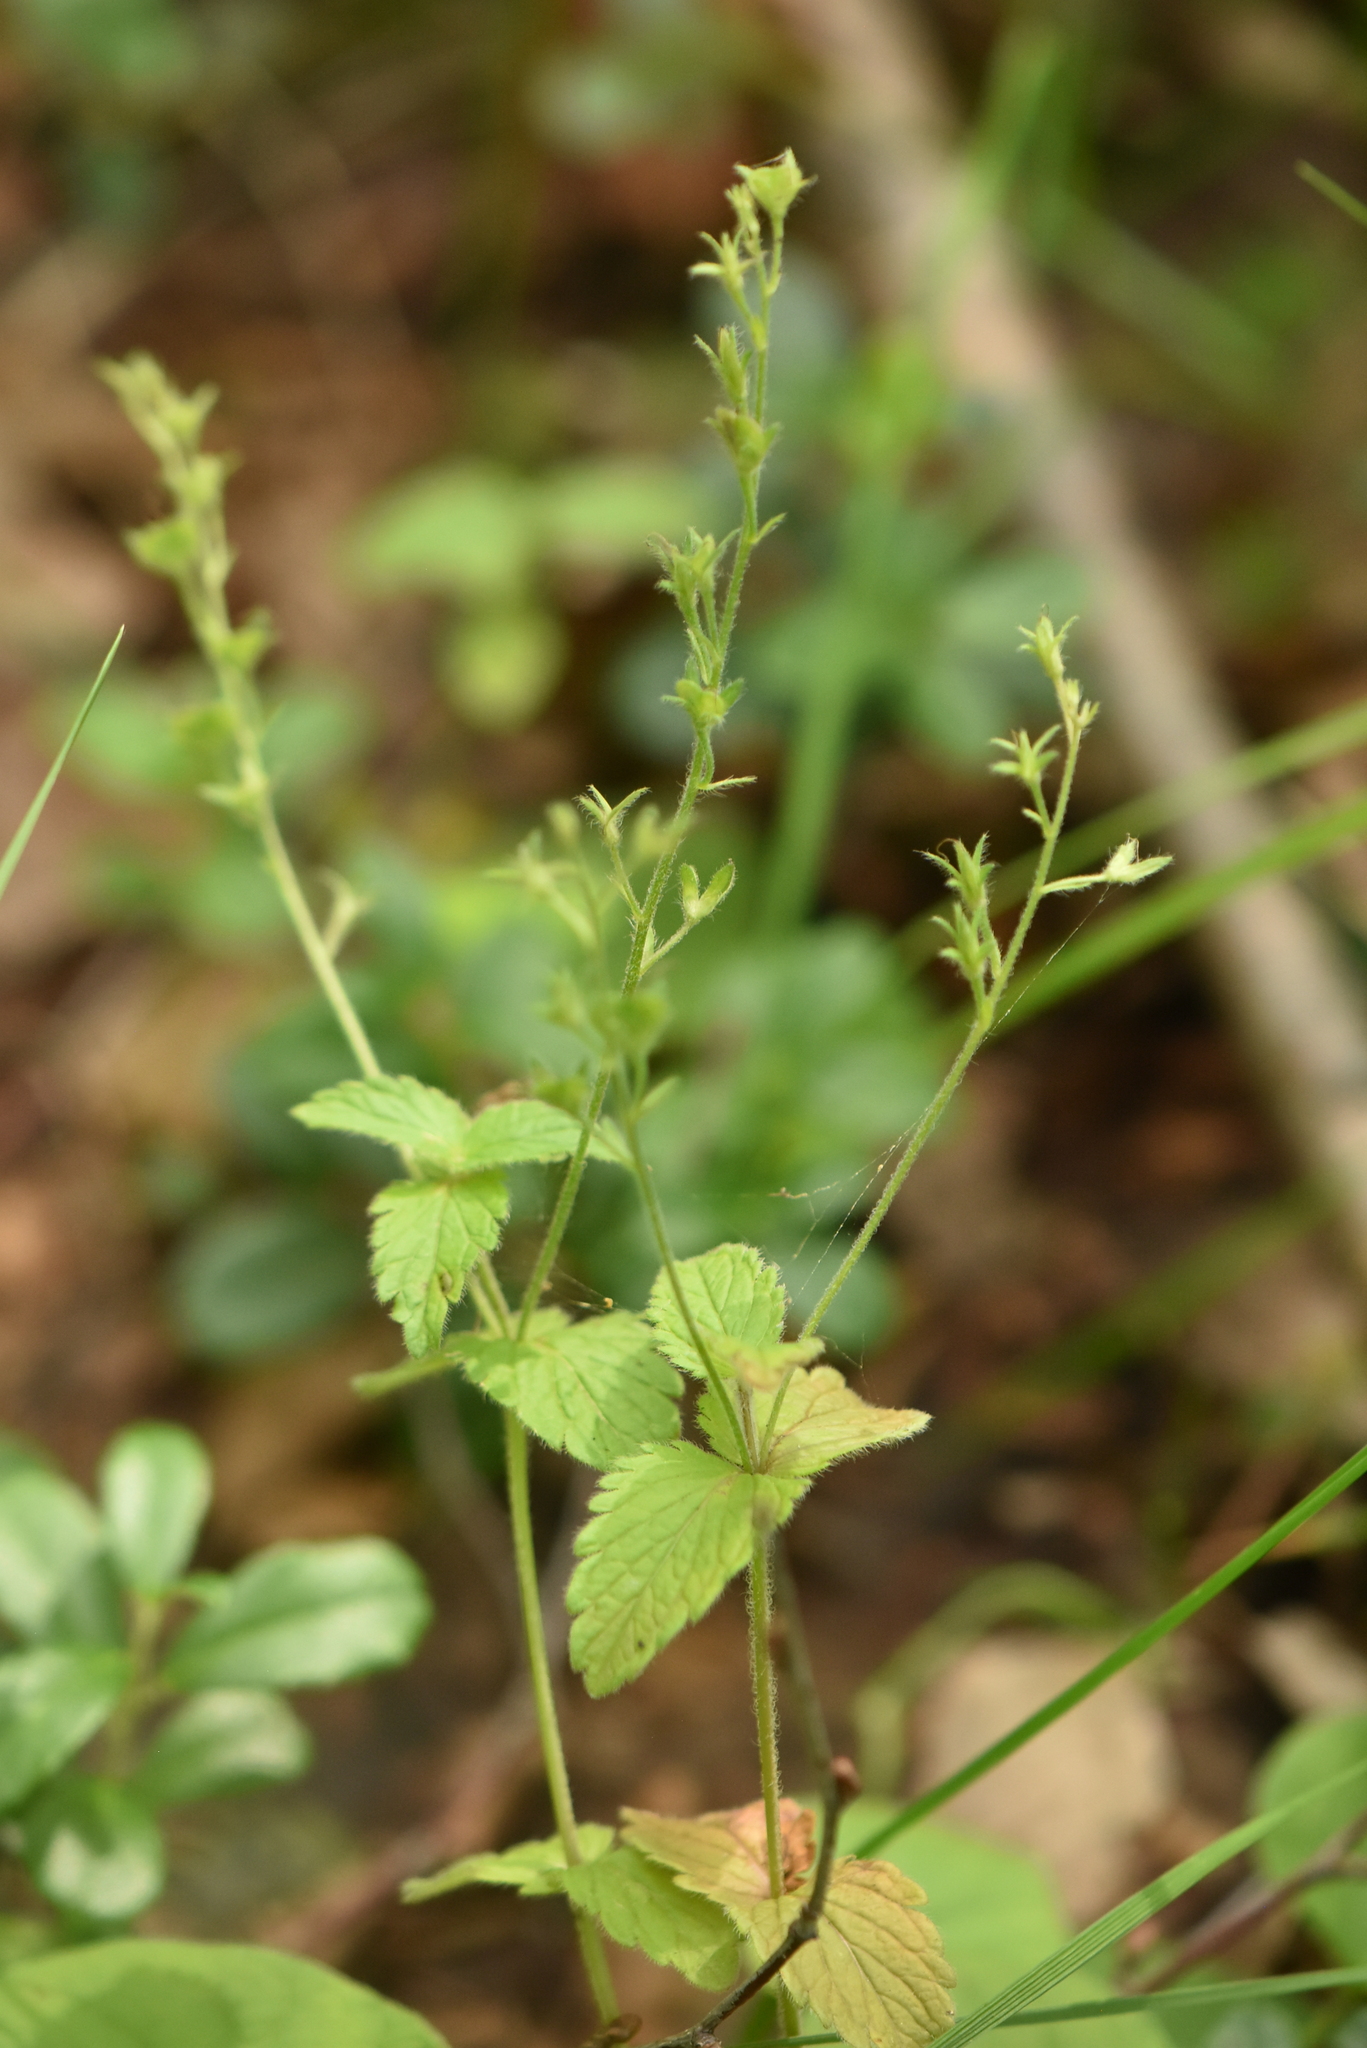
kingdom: Plantae
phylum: Tracheophyta
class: Magnoliopsida
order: Lamiales
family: Plantaginaceae
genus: Veronica
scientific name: Veronica chamaedrys
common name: Germander speedwell
